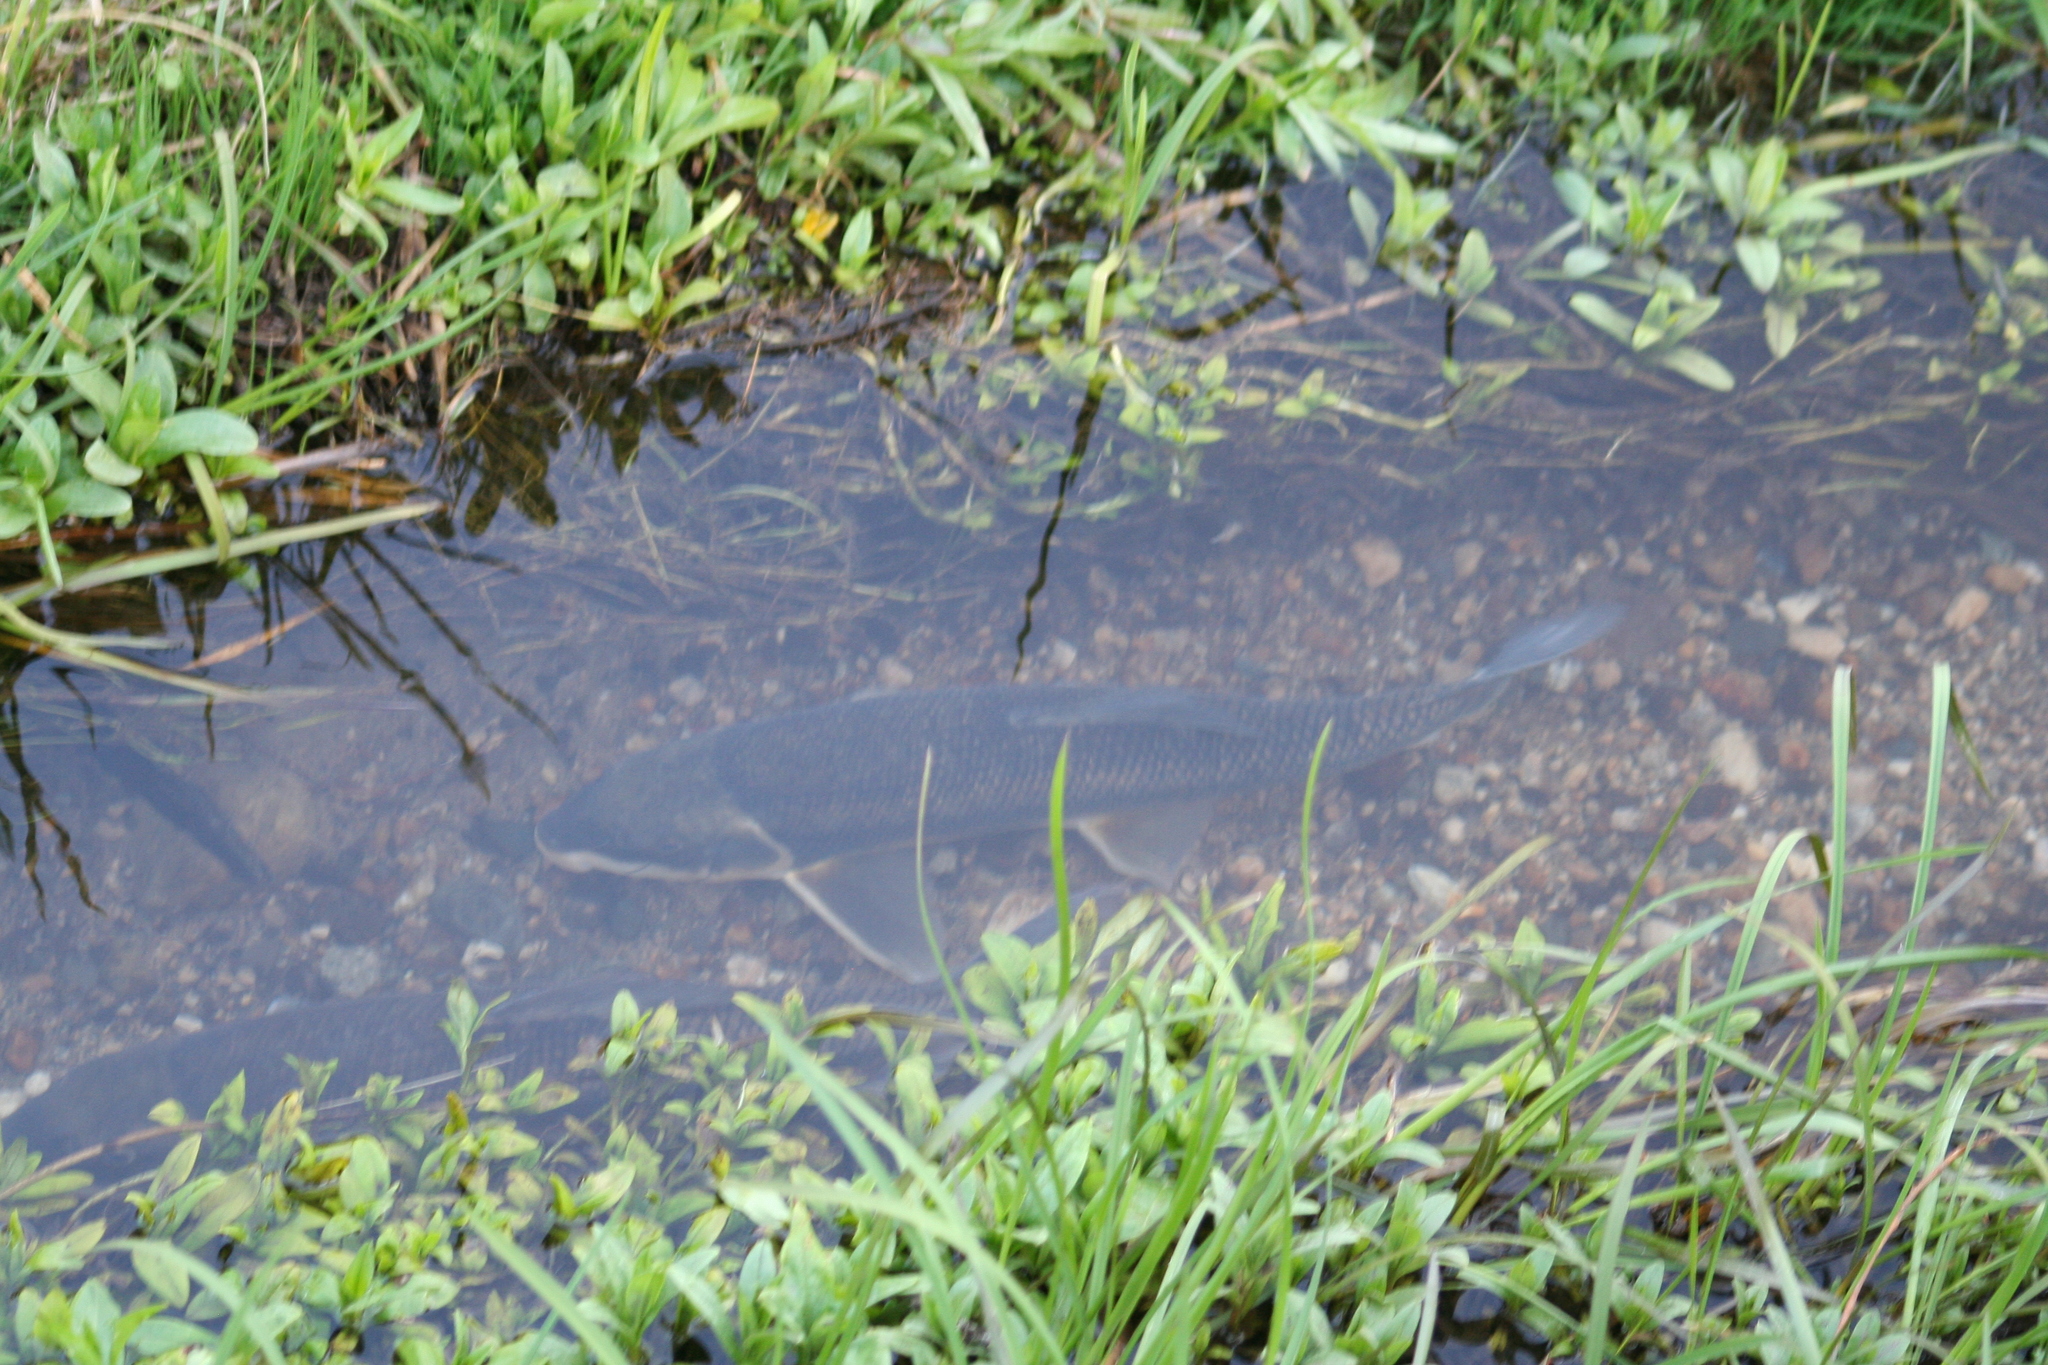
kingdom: Animalia
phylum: Chordata
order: Cypriniformes
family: Catostomidae
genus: Catostomus
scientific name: Catostomus commersonii
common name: White sucker
